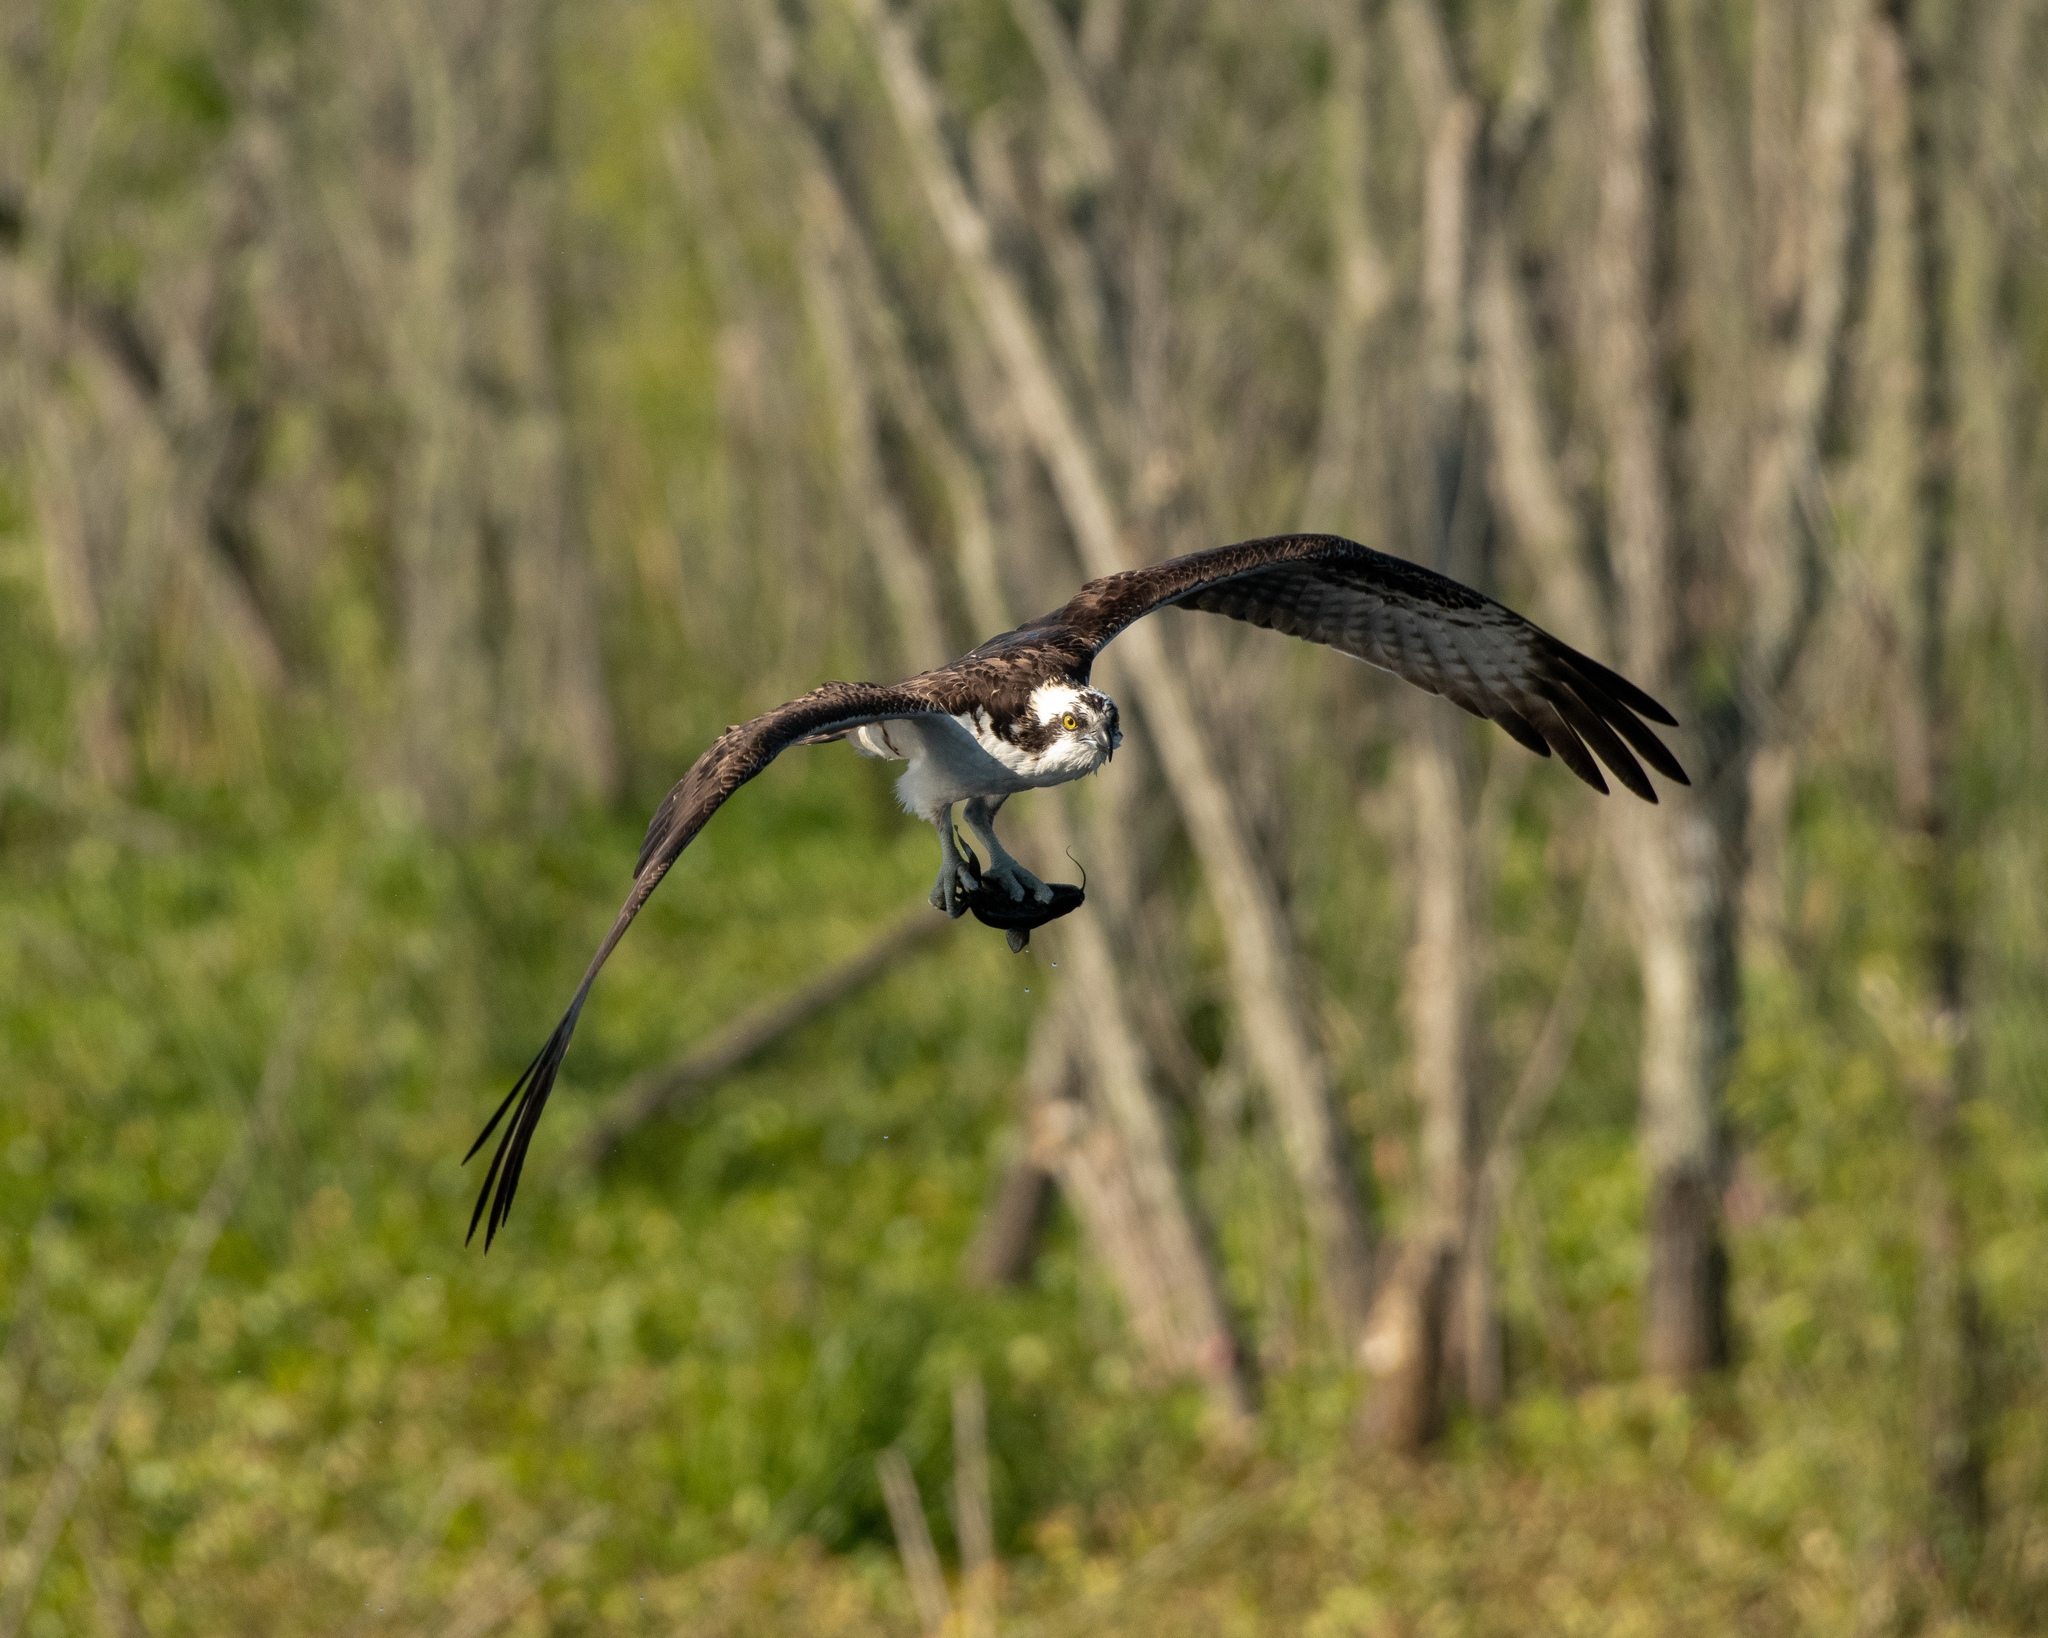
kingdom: Animalia
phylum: Chordata
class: Aves
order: Accipitriformes
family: Pandionidae
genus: Pandion
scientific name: Pandion haliaetus
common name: Osprey
